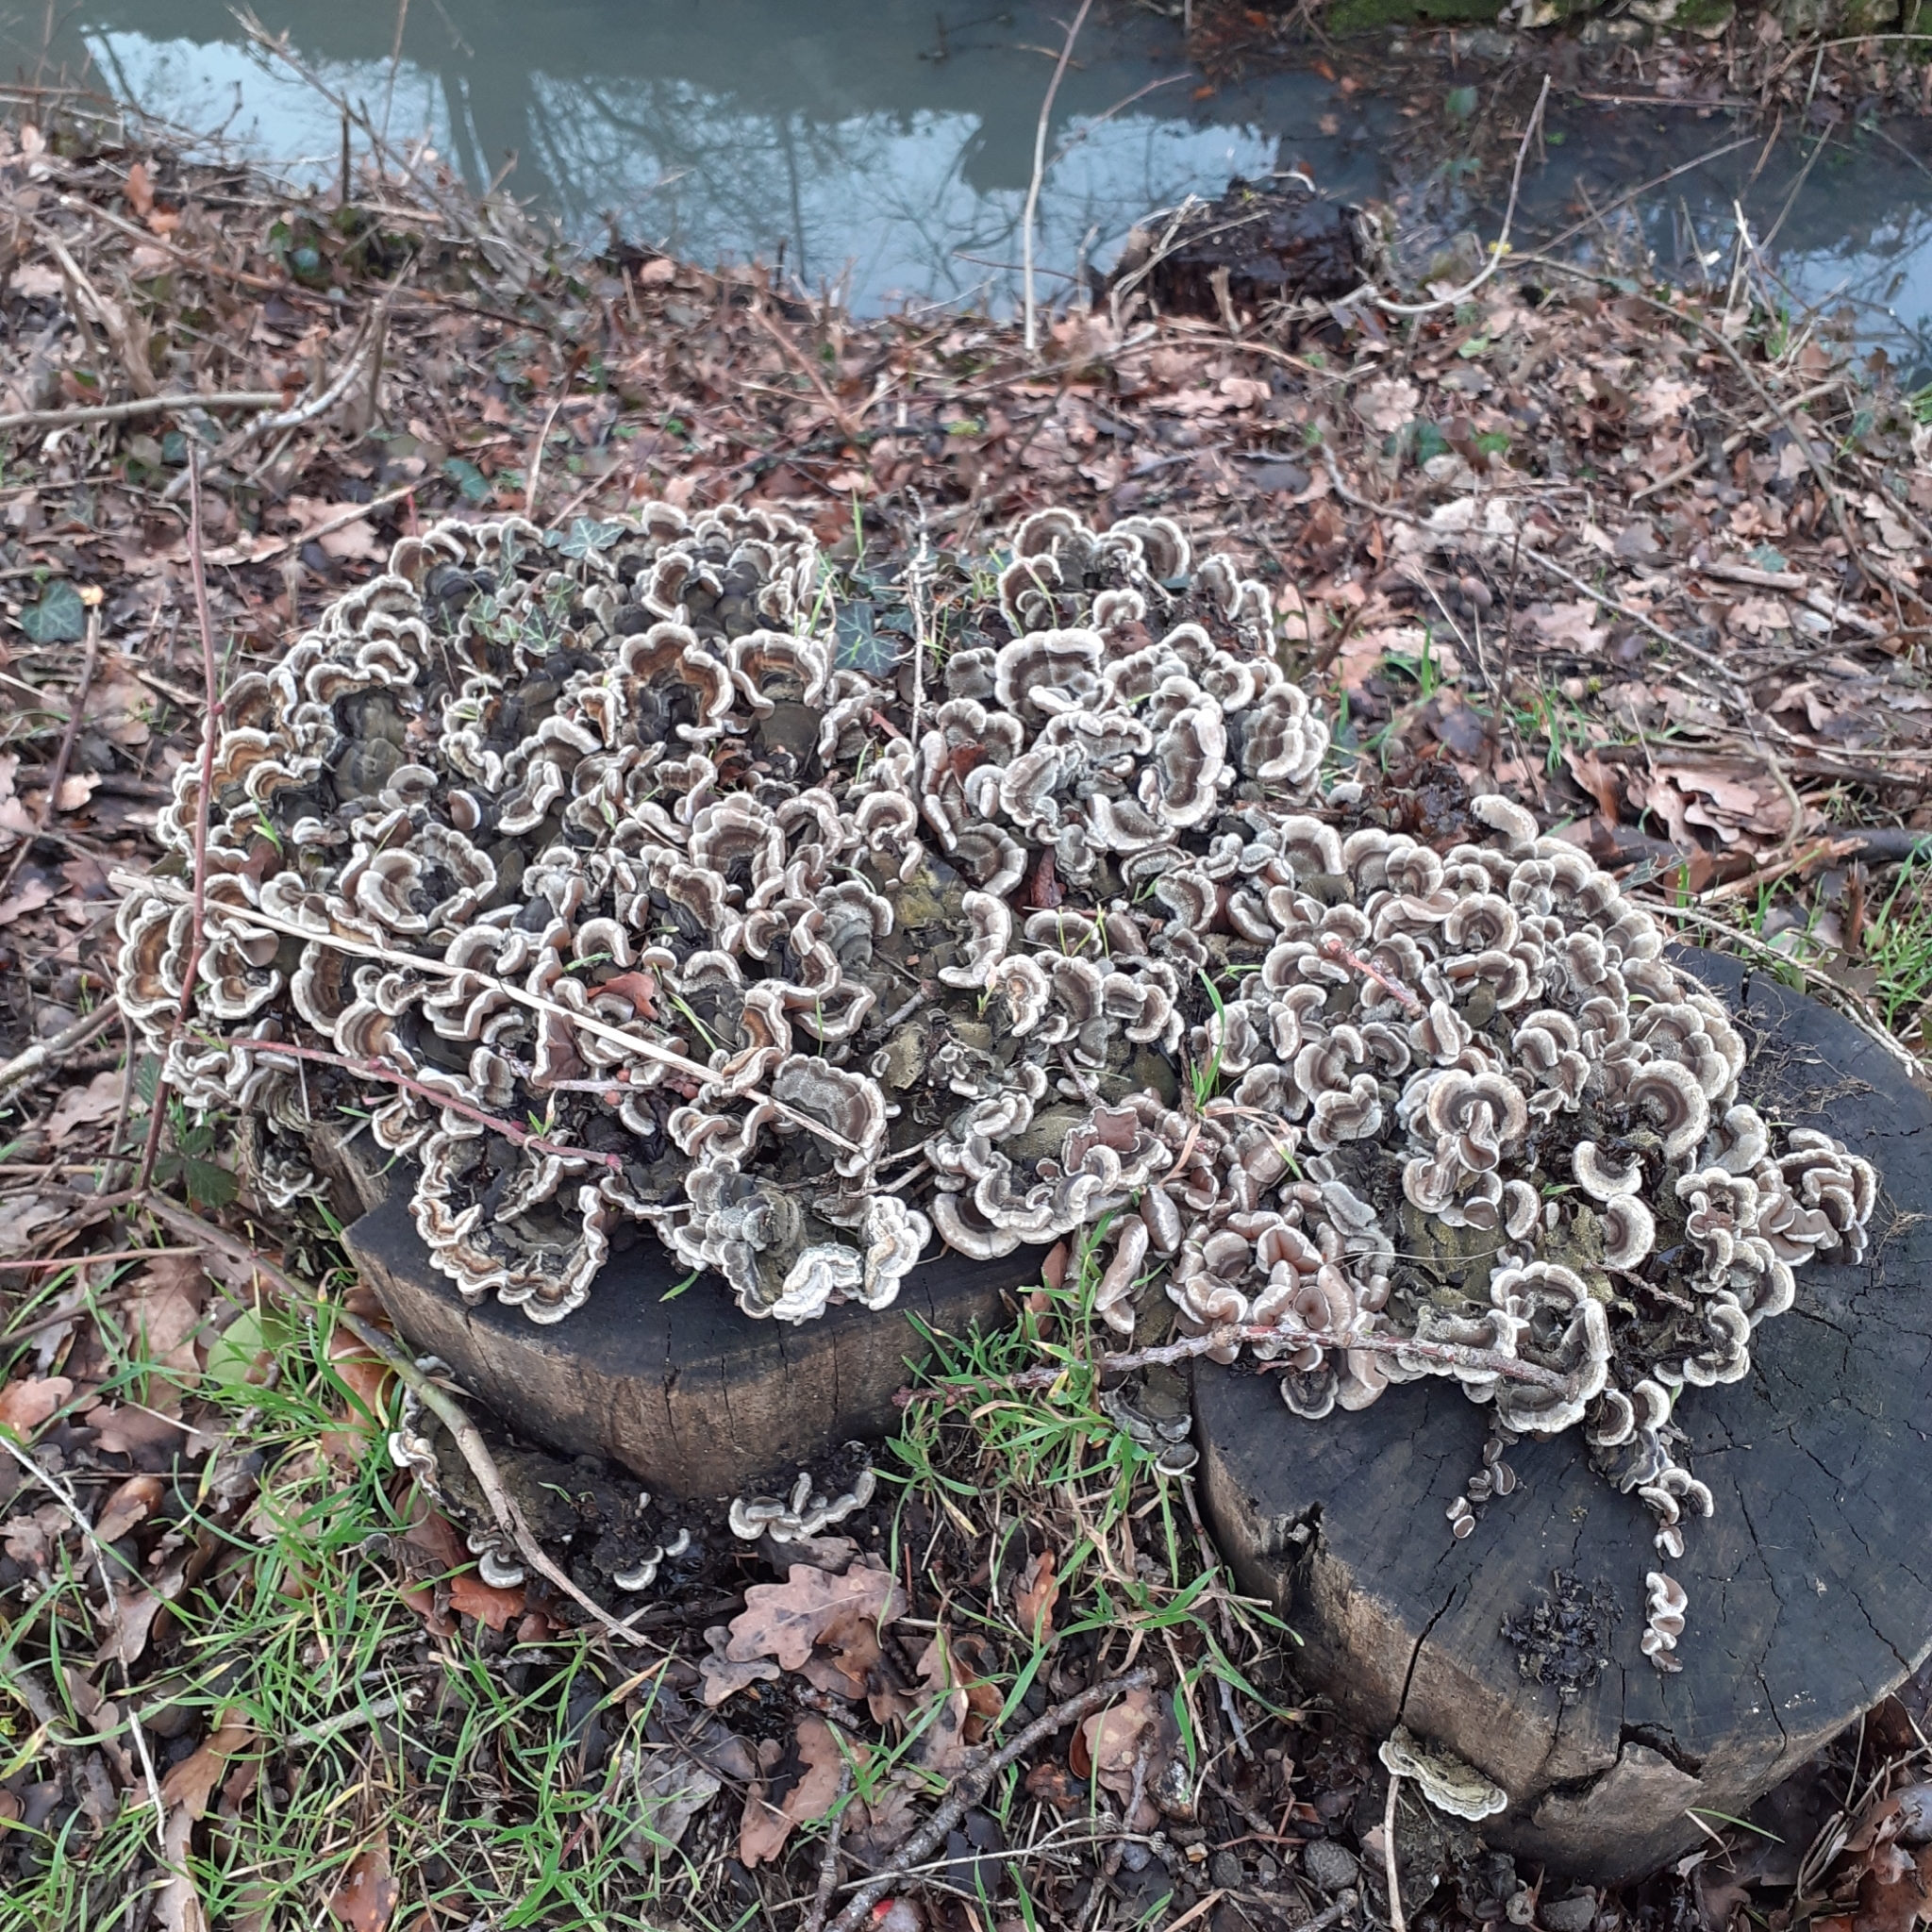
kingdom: Fungi
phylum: Basidiomycota
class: Agaricomycetes
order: Auriculariales
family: Auriculariaceae
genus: Auricularia
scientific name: Auricularia mesenterica
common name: Tripe fungus
